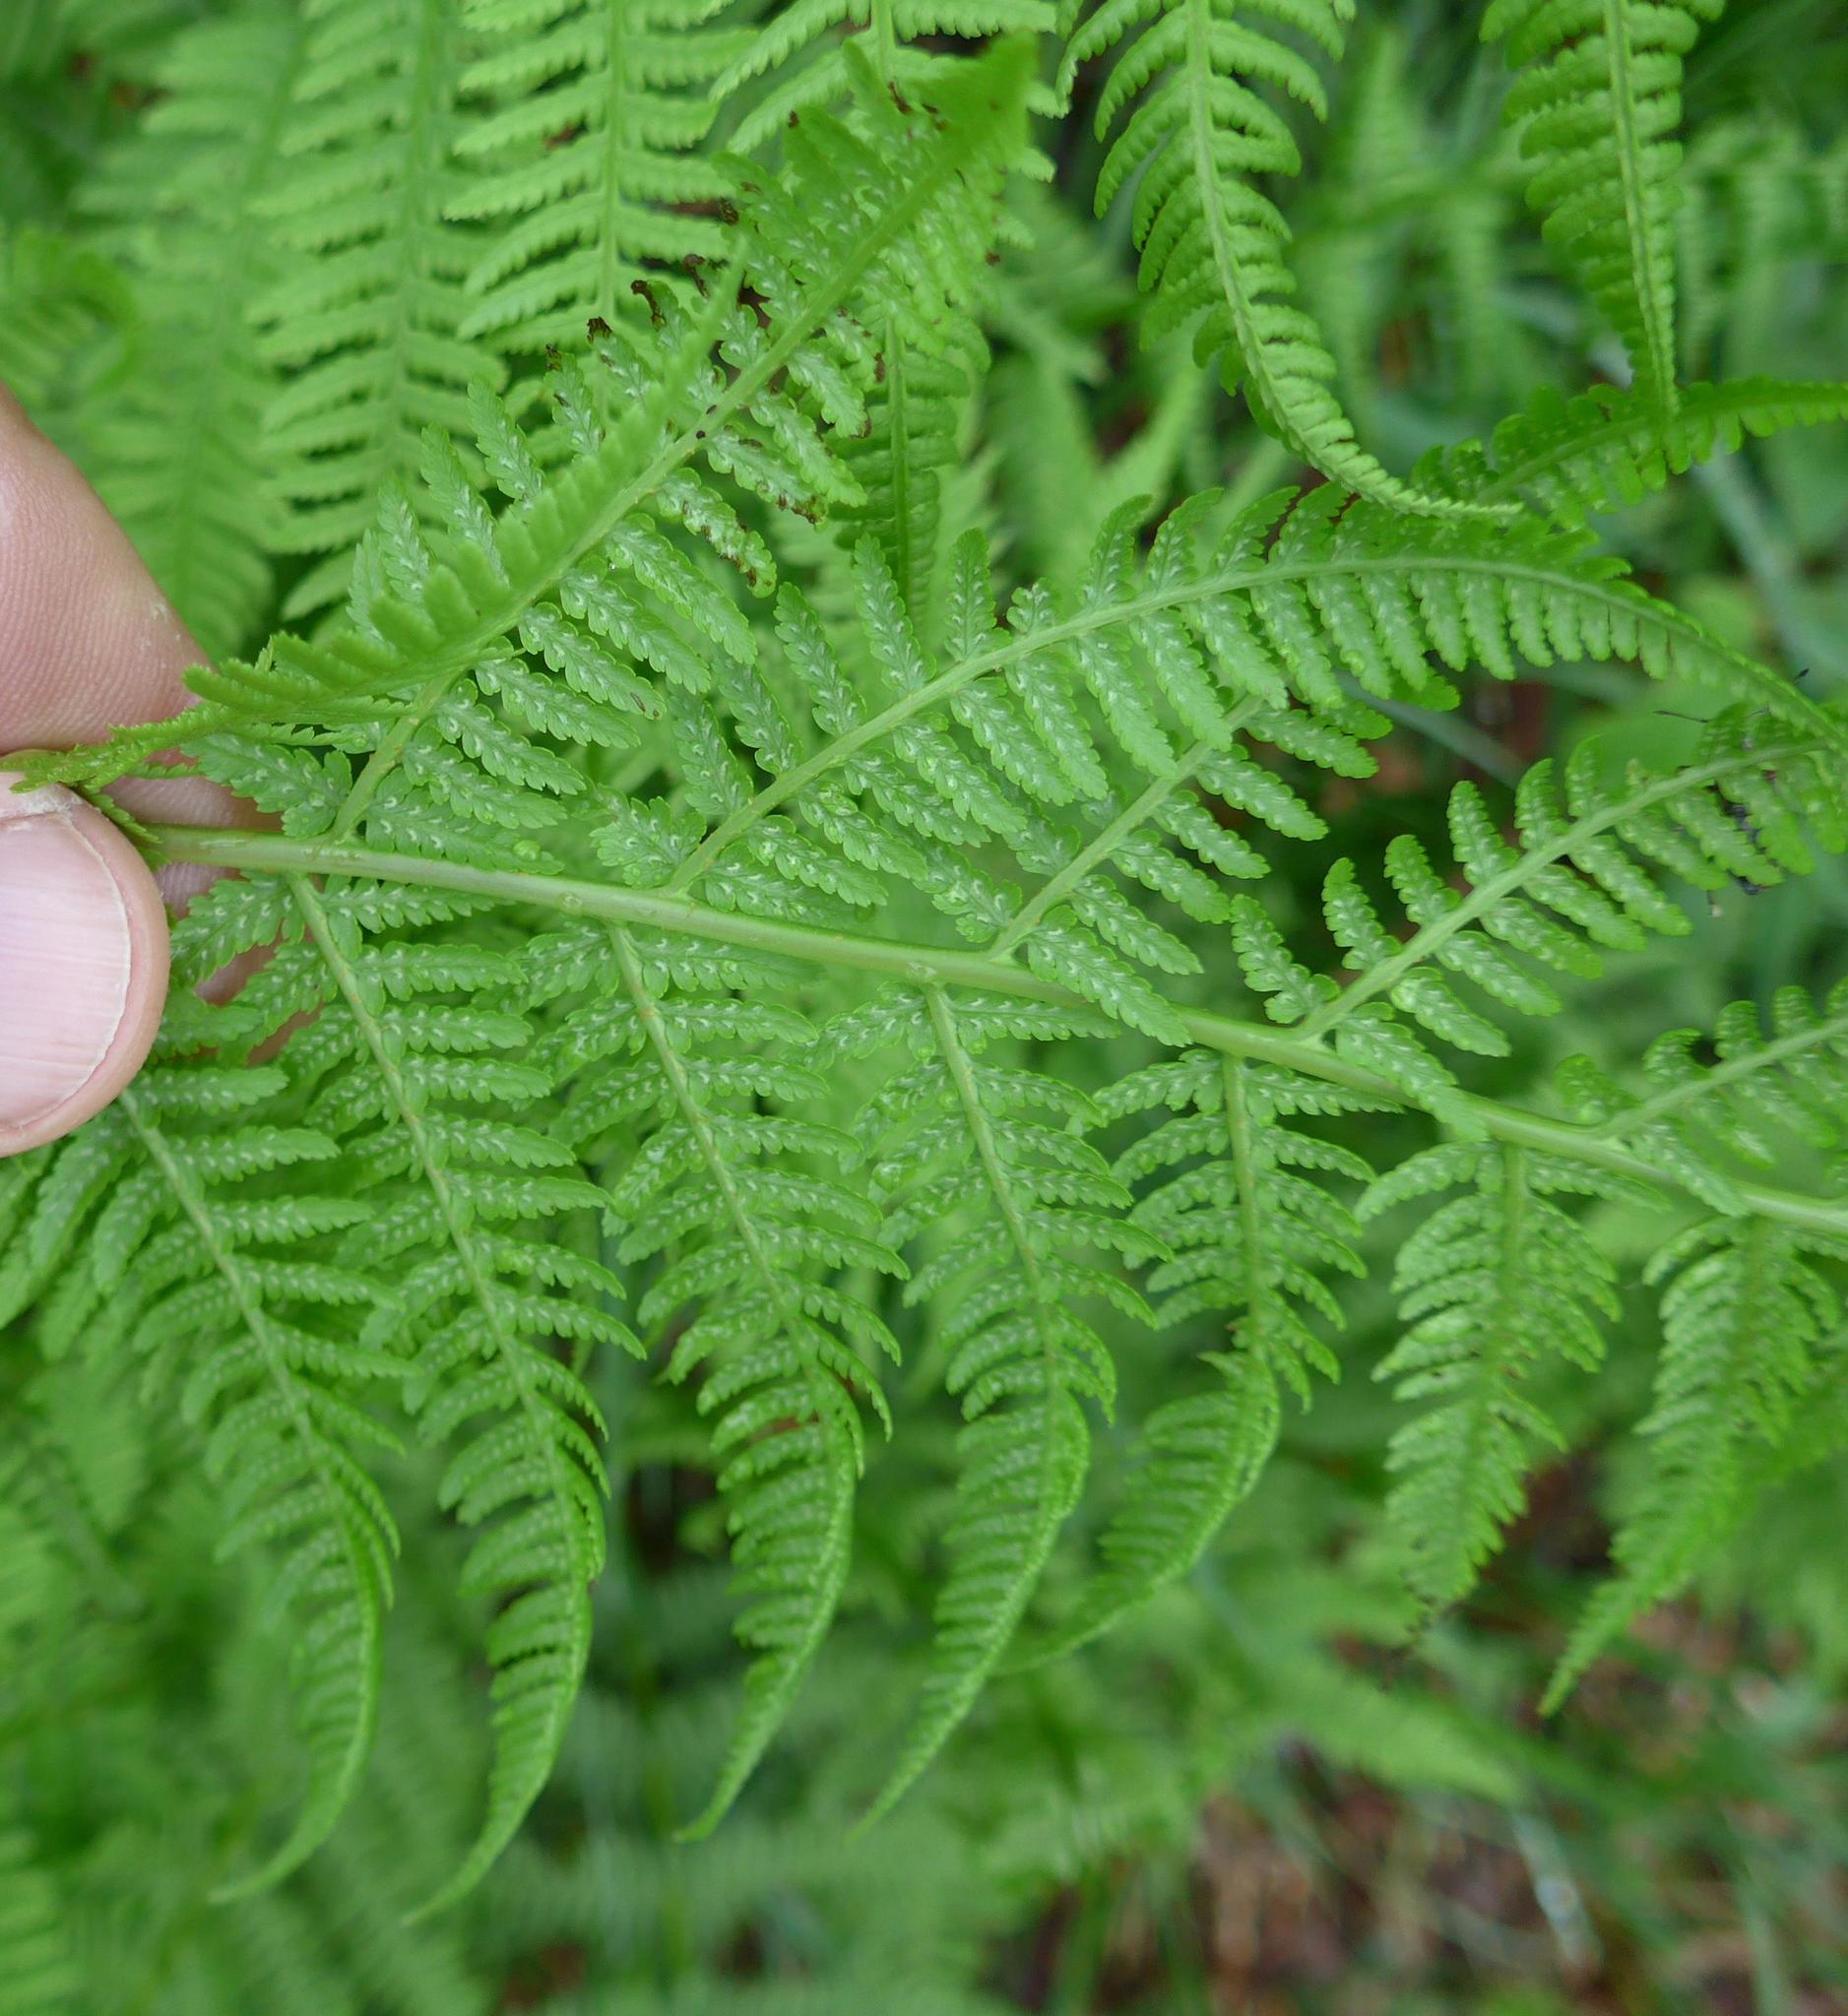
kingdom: Plantae
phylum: Tracheophyta
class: Polypodiopsida
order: Polypodiales
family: Athyriaceae
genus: Athyrium
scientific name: Athyrium filix-femina
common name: Lady fern
